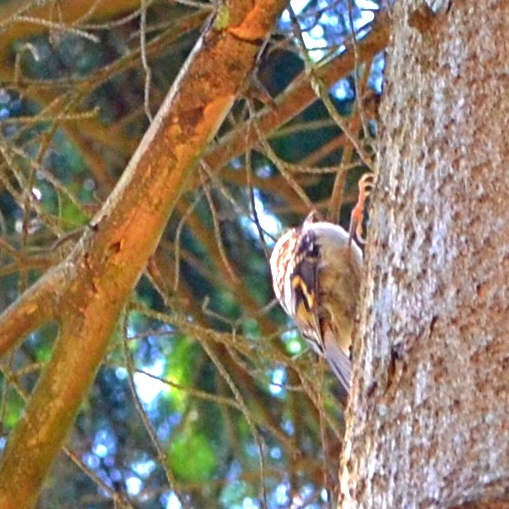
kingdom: Animalia
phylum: Chordata
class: Aves
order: Passeriformes
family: Certhiidae
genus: Certhia
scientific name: Certhia familiaris
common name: Eurasian treecreeper
